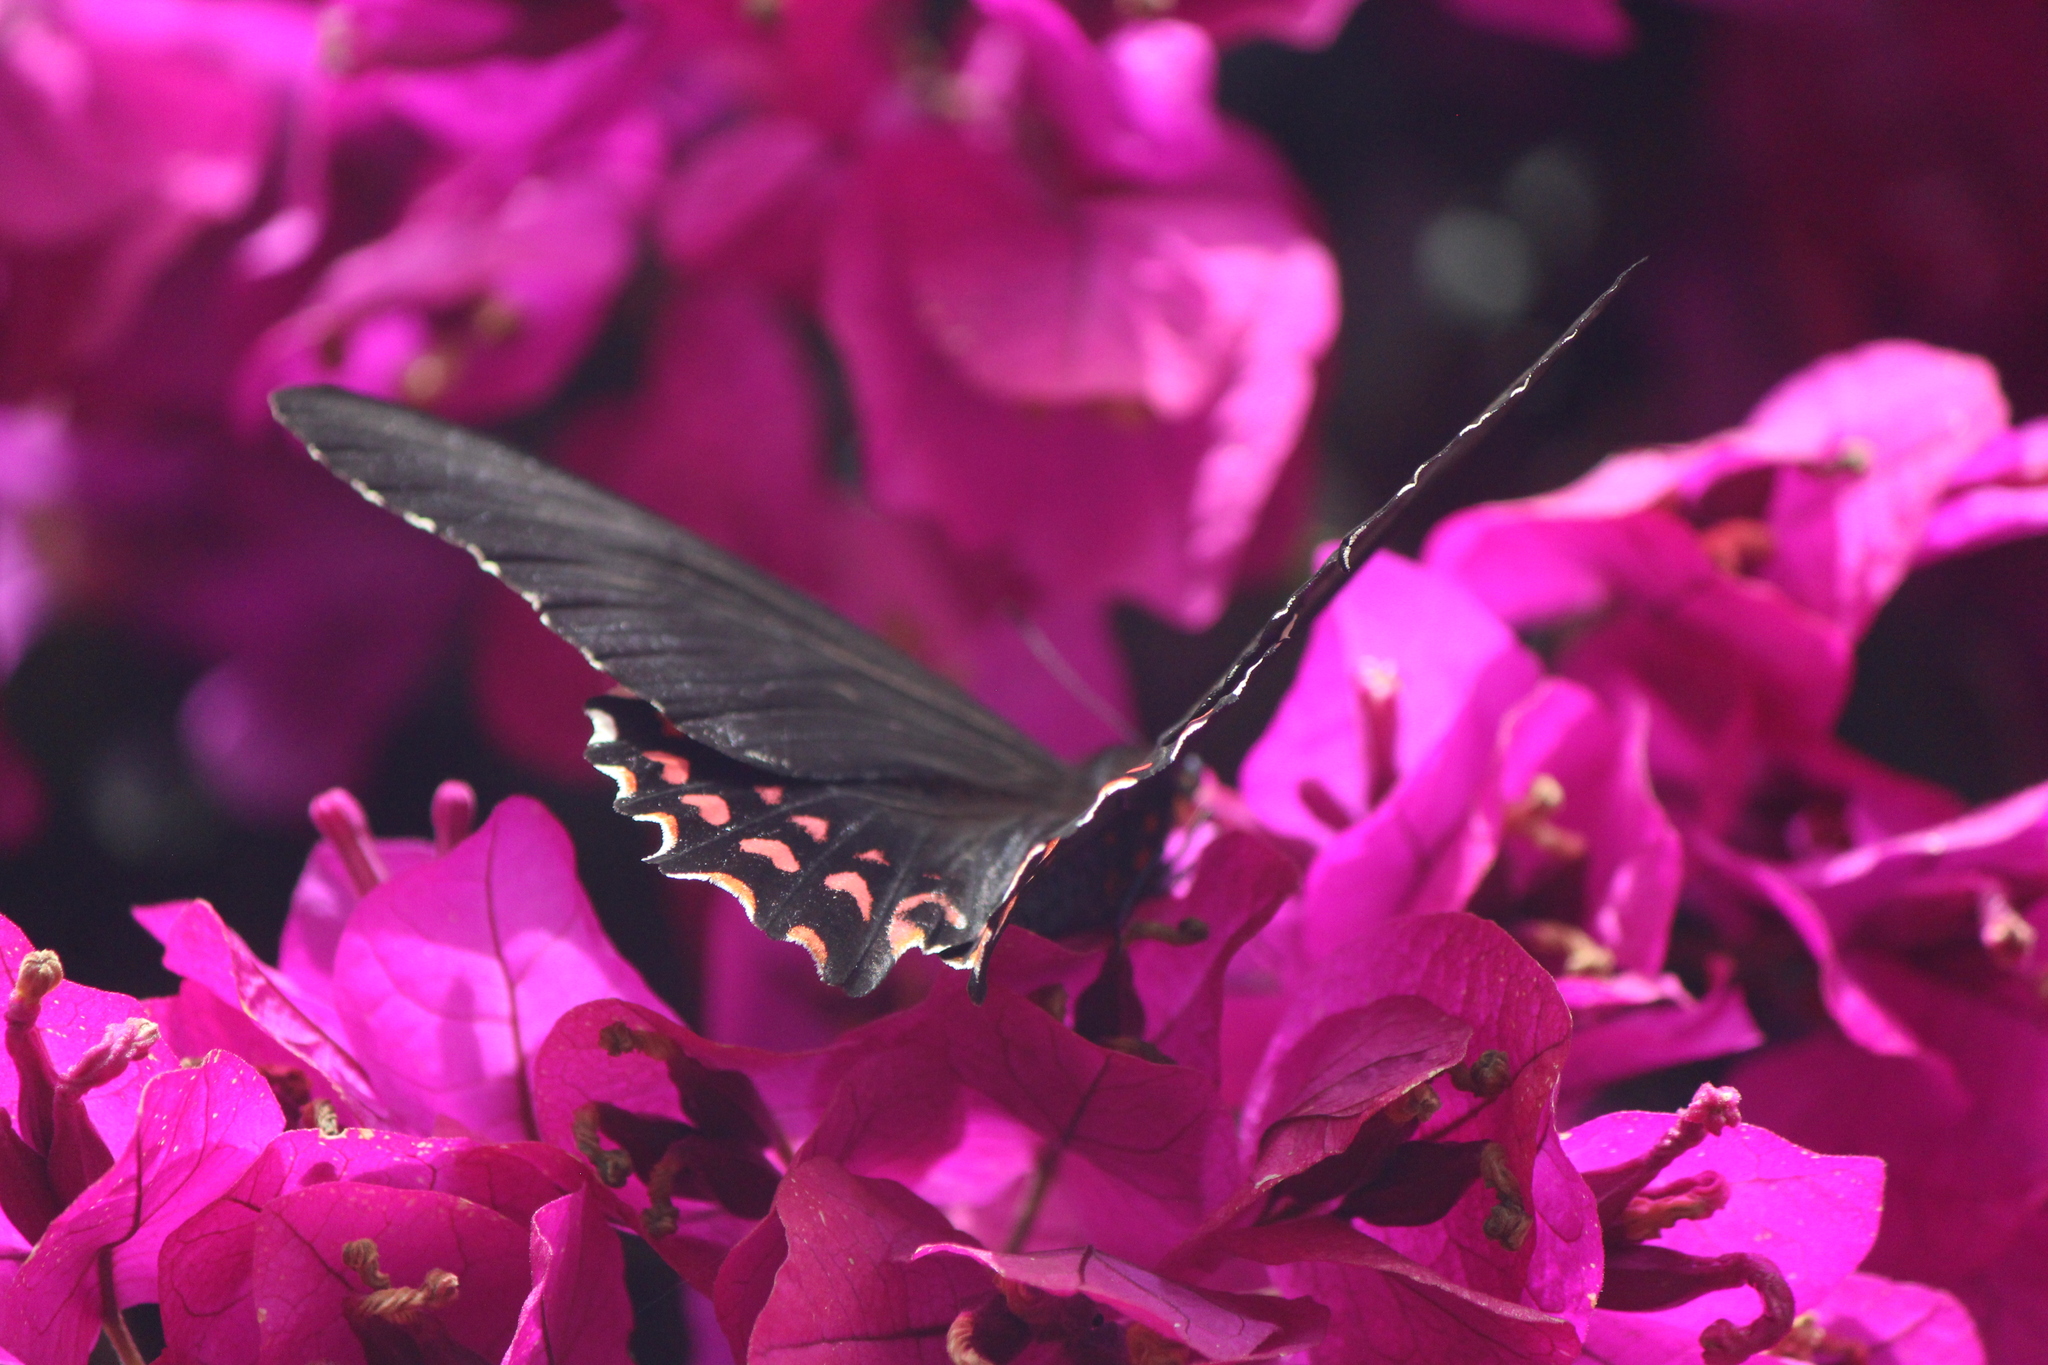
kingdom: Animalia
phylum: Arthropoda
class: Insecta
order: Lepidoptera
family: Papilionidae
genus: Heraclides
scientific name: Heraclides rogeri
